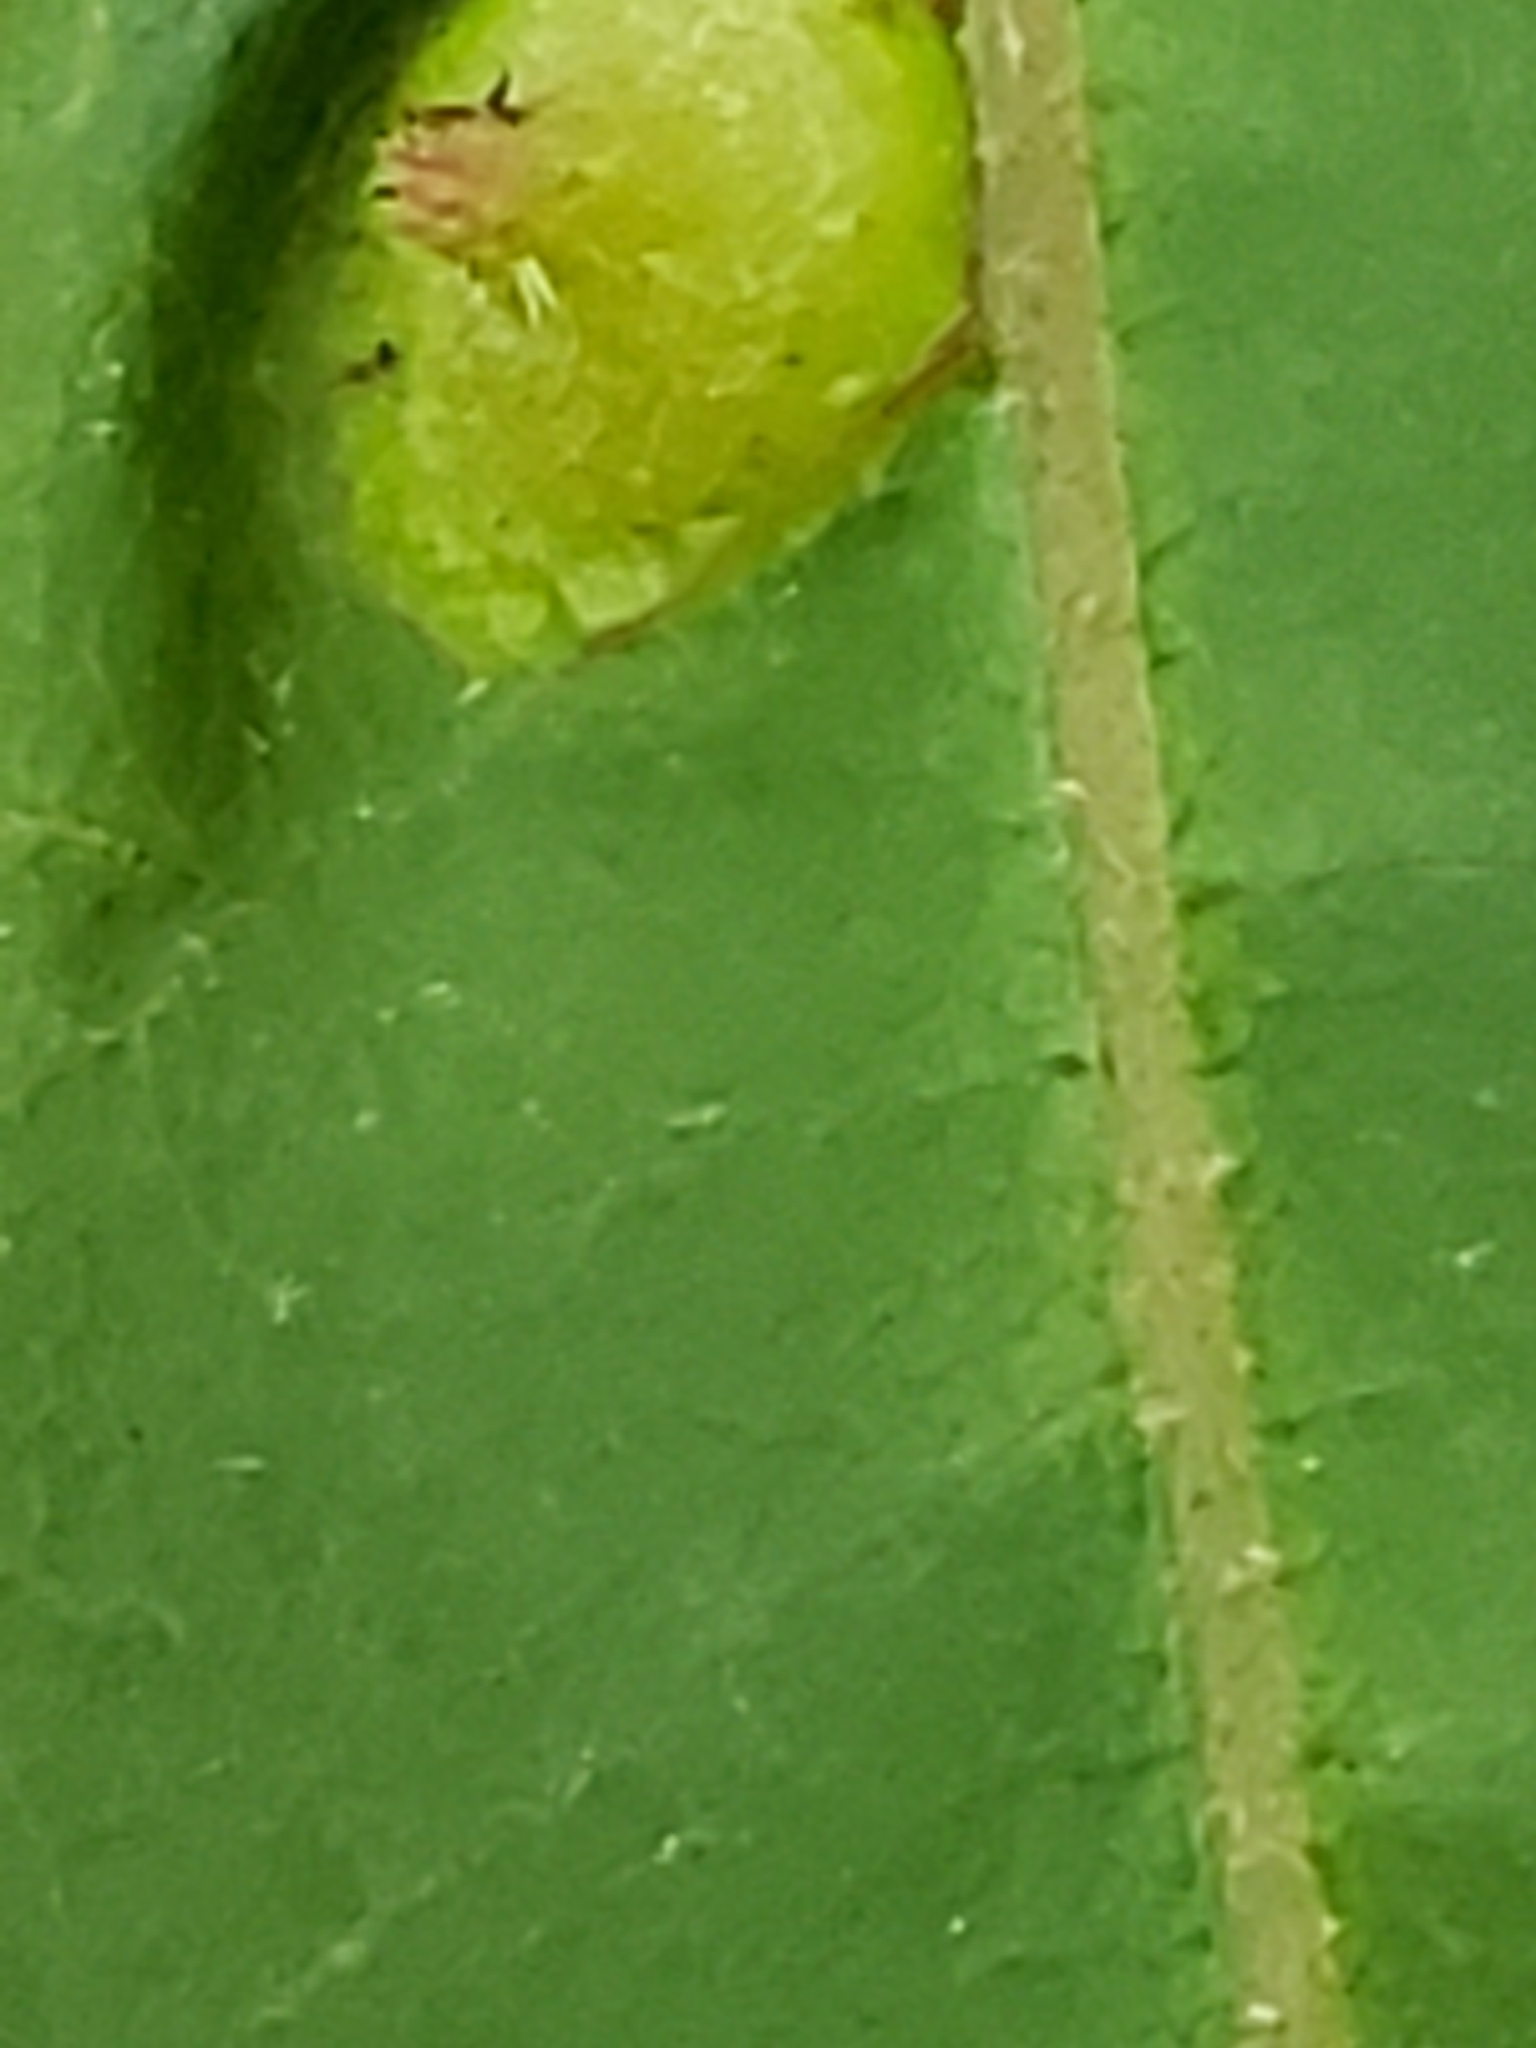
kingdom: Animalia
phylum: Arthropoda
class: Insecta
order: Hemiptera
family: Phylloxeridae
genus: Phylloxera
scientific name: Phylloxera caryaefoliae
